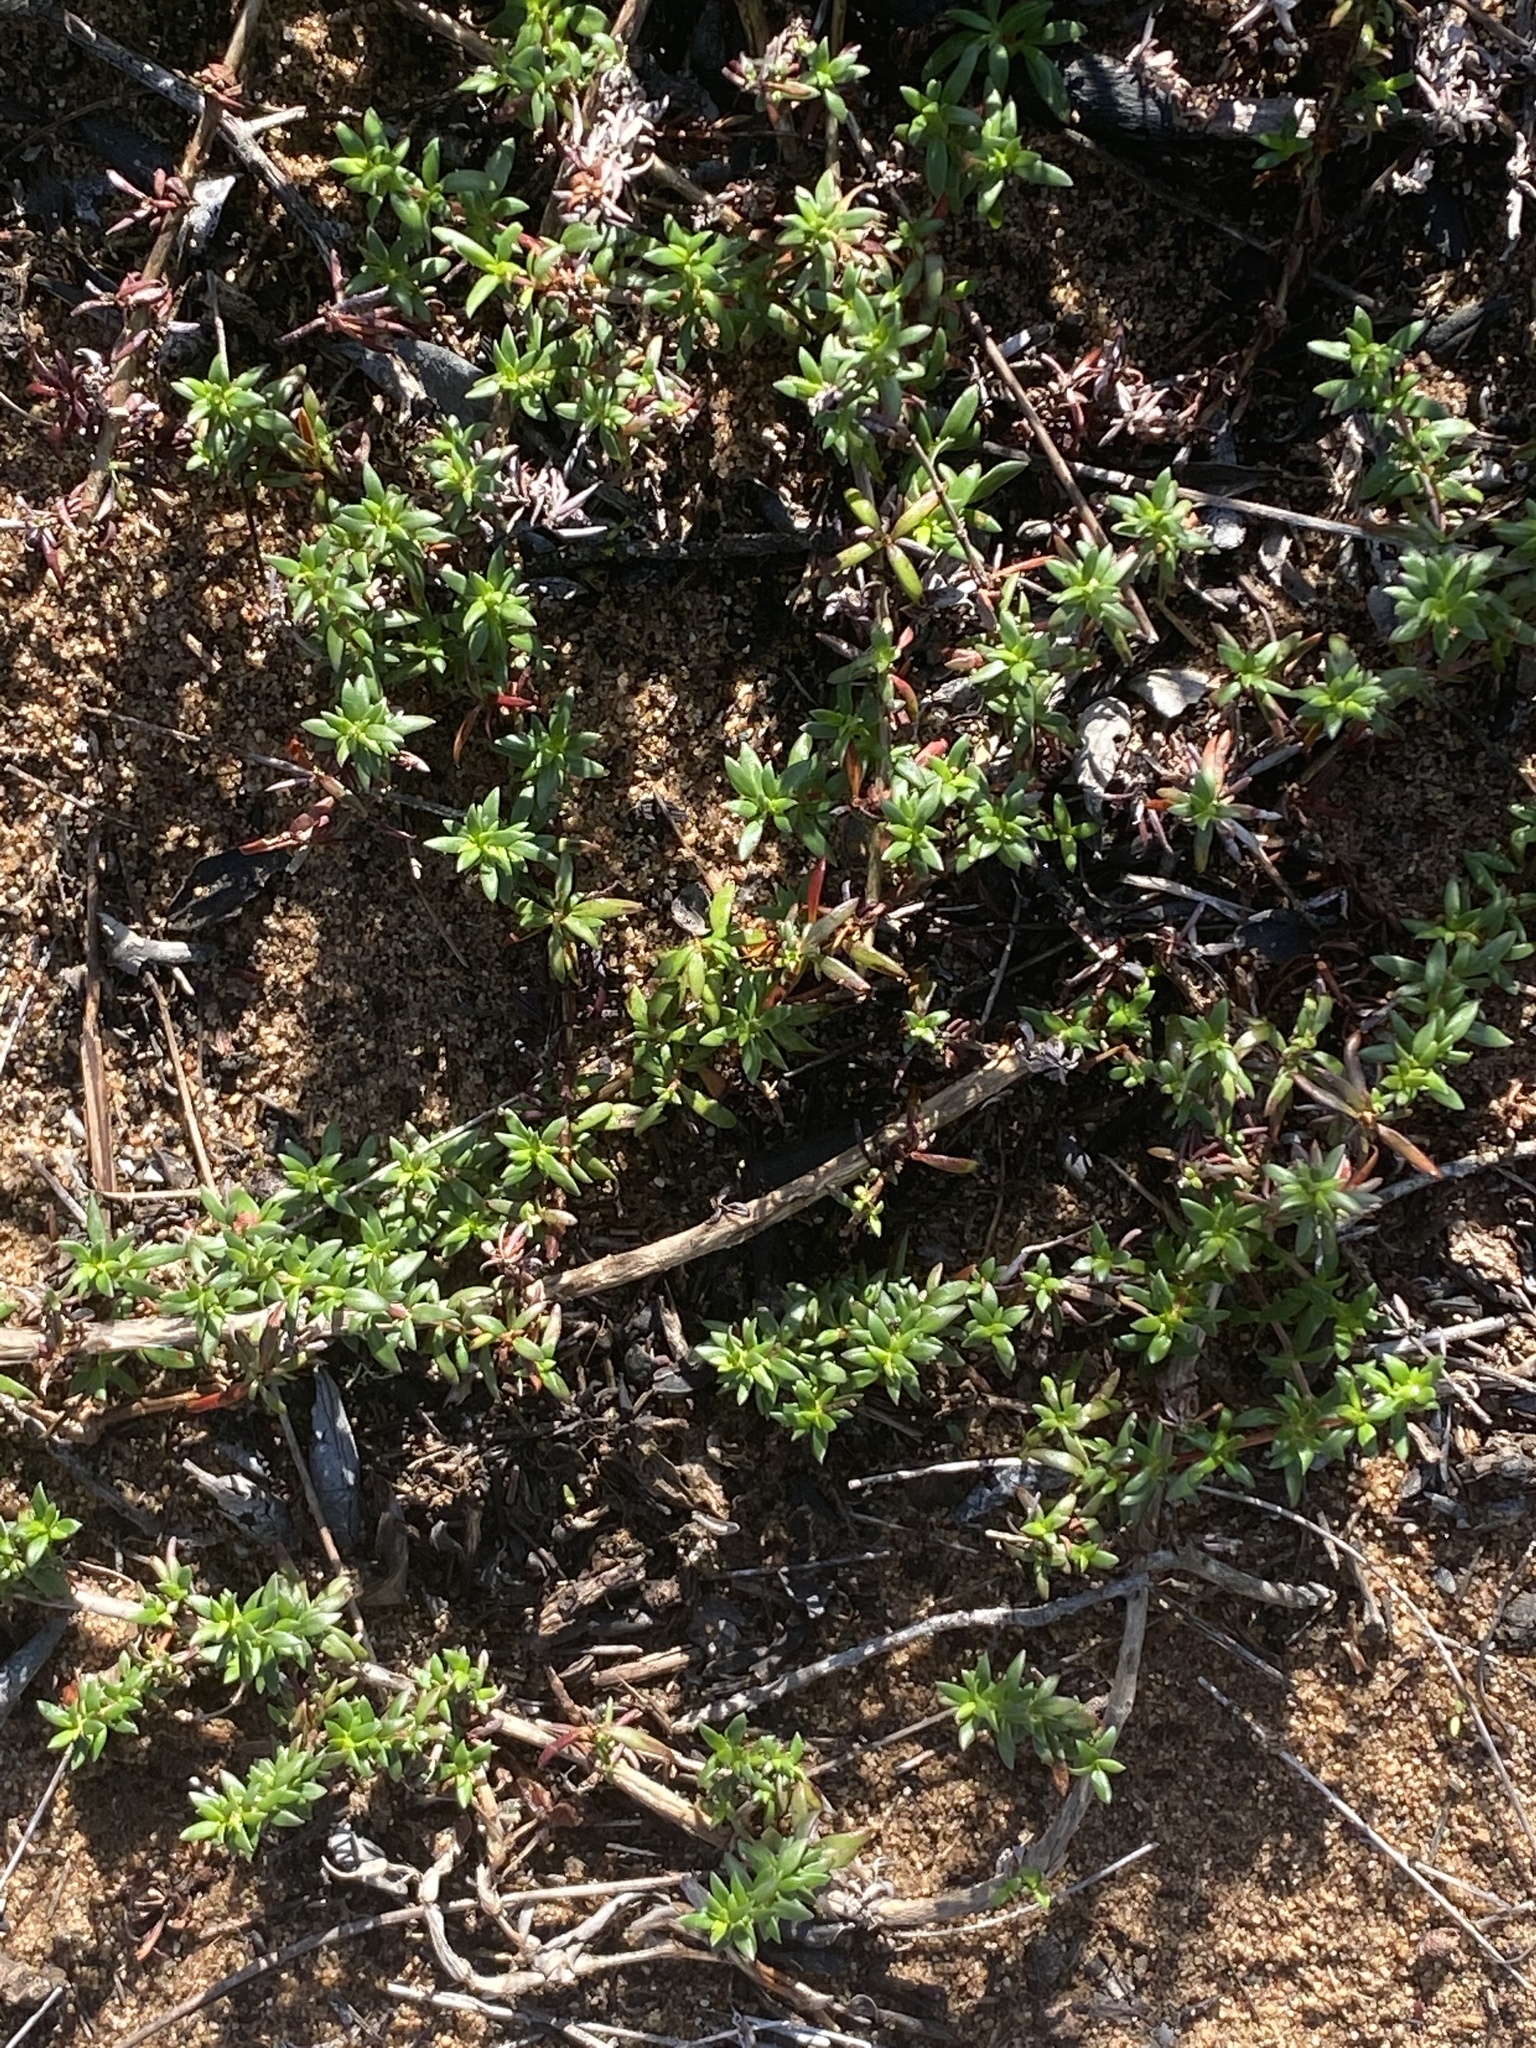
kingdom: Plantae
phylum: Tracheophyta
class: Magnoliopsida
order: Gentianales
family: Rubiaceae
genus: Anthospermum
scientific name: Anthospermum prostratum
